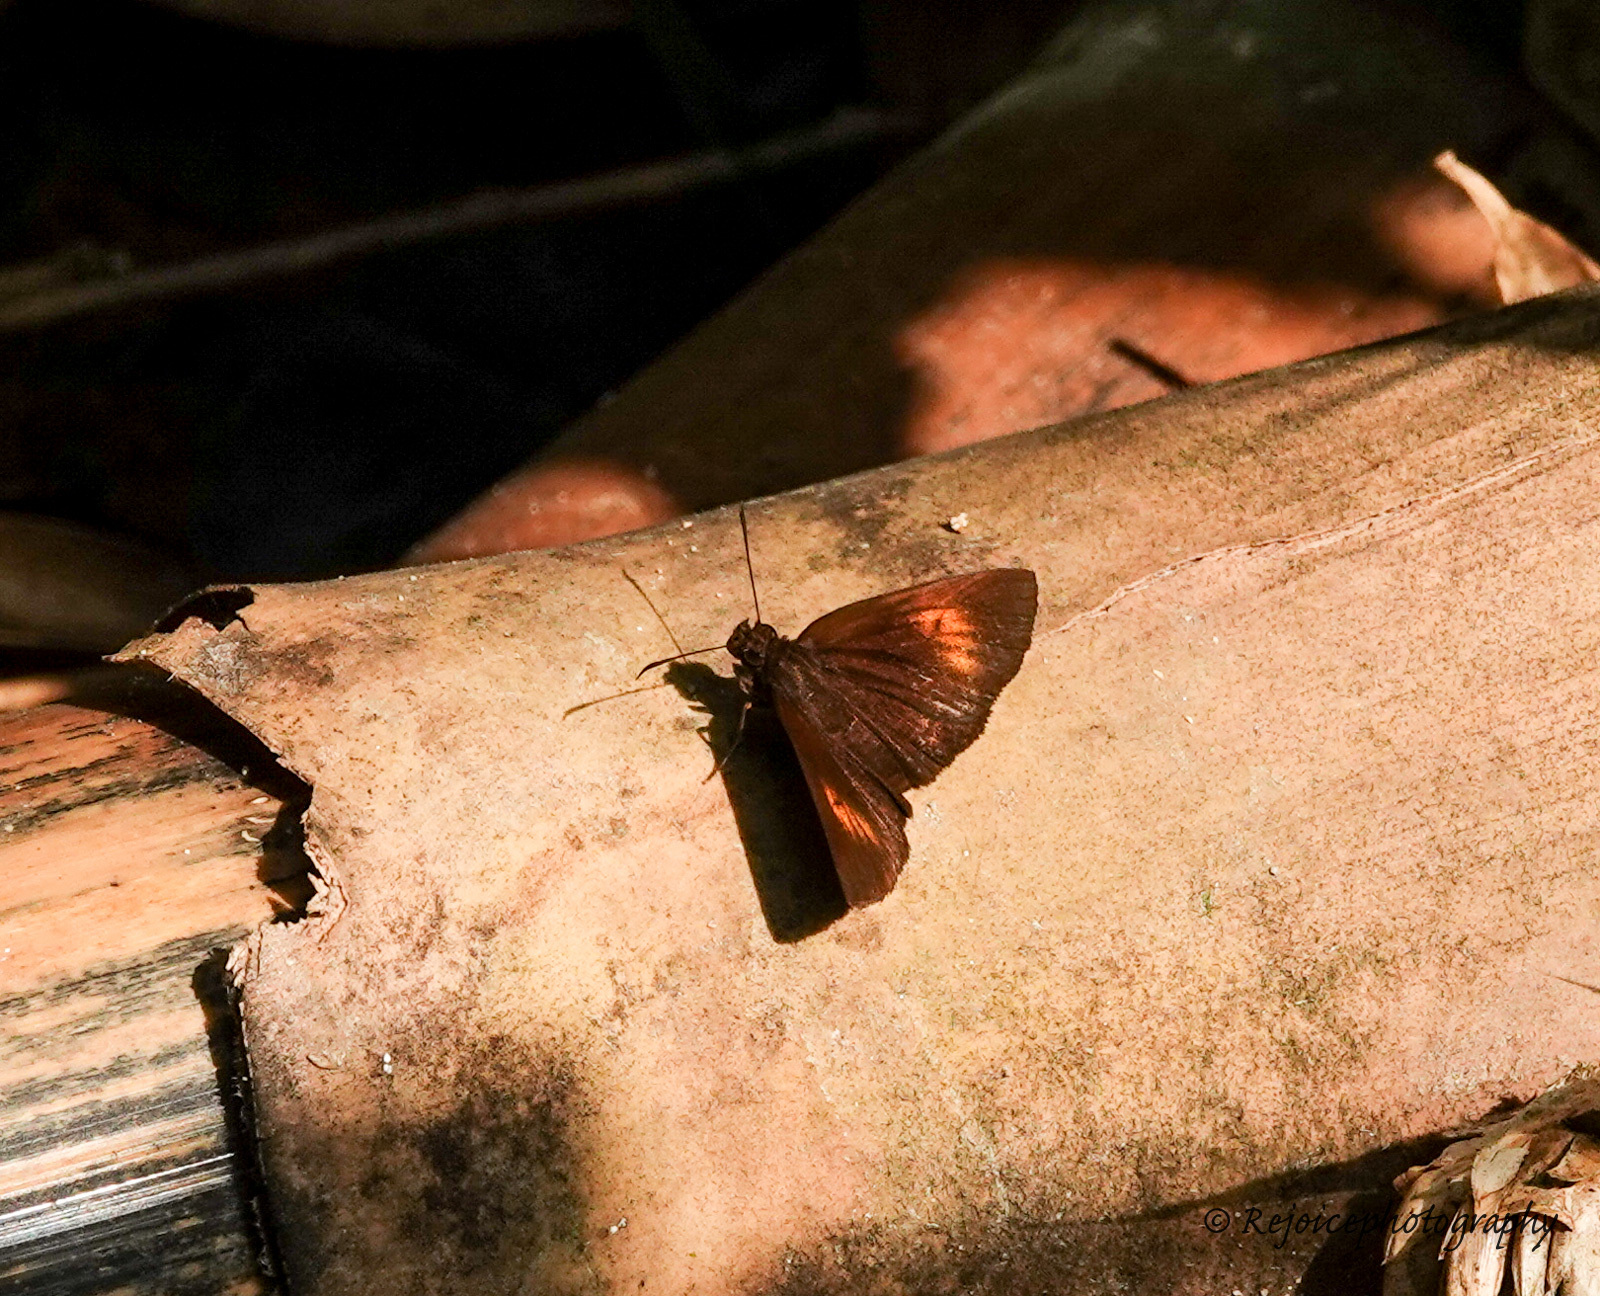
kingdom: Animalia
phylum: Arthropoda
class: Insecta
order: Lepidoptera
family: Hesperiidae
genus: Koruthaialos
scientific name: Koruthaialos sindu
